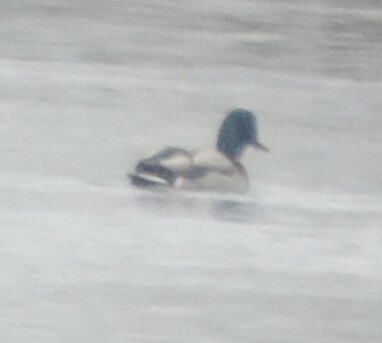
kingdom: Animalia
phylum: Chordata
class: Aves
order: Anseriformes
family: Anatidae
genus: Anas
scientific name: Anas platyrhynchos
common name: Mallard
